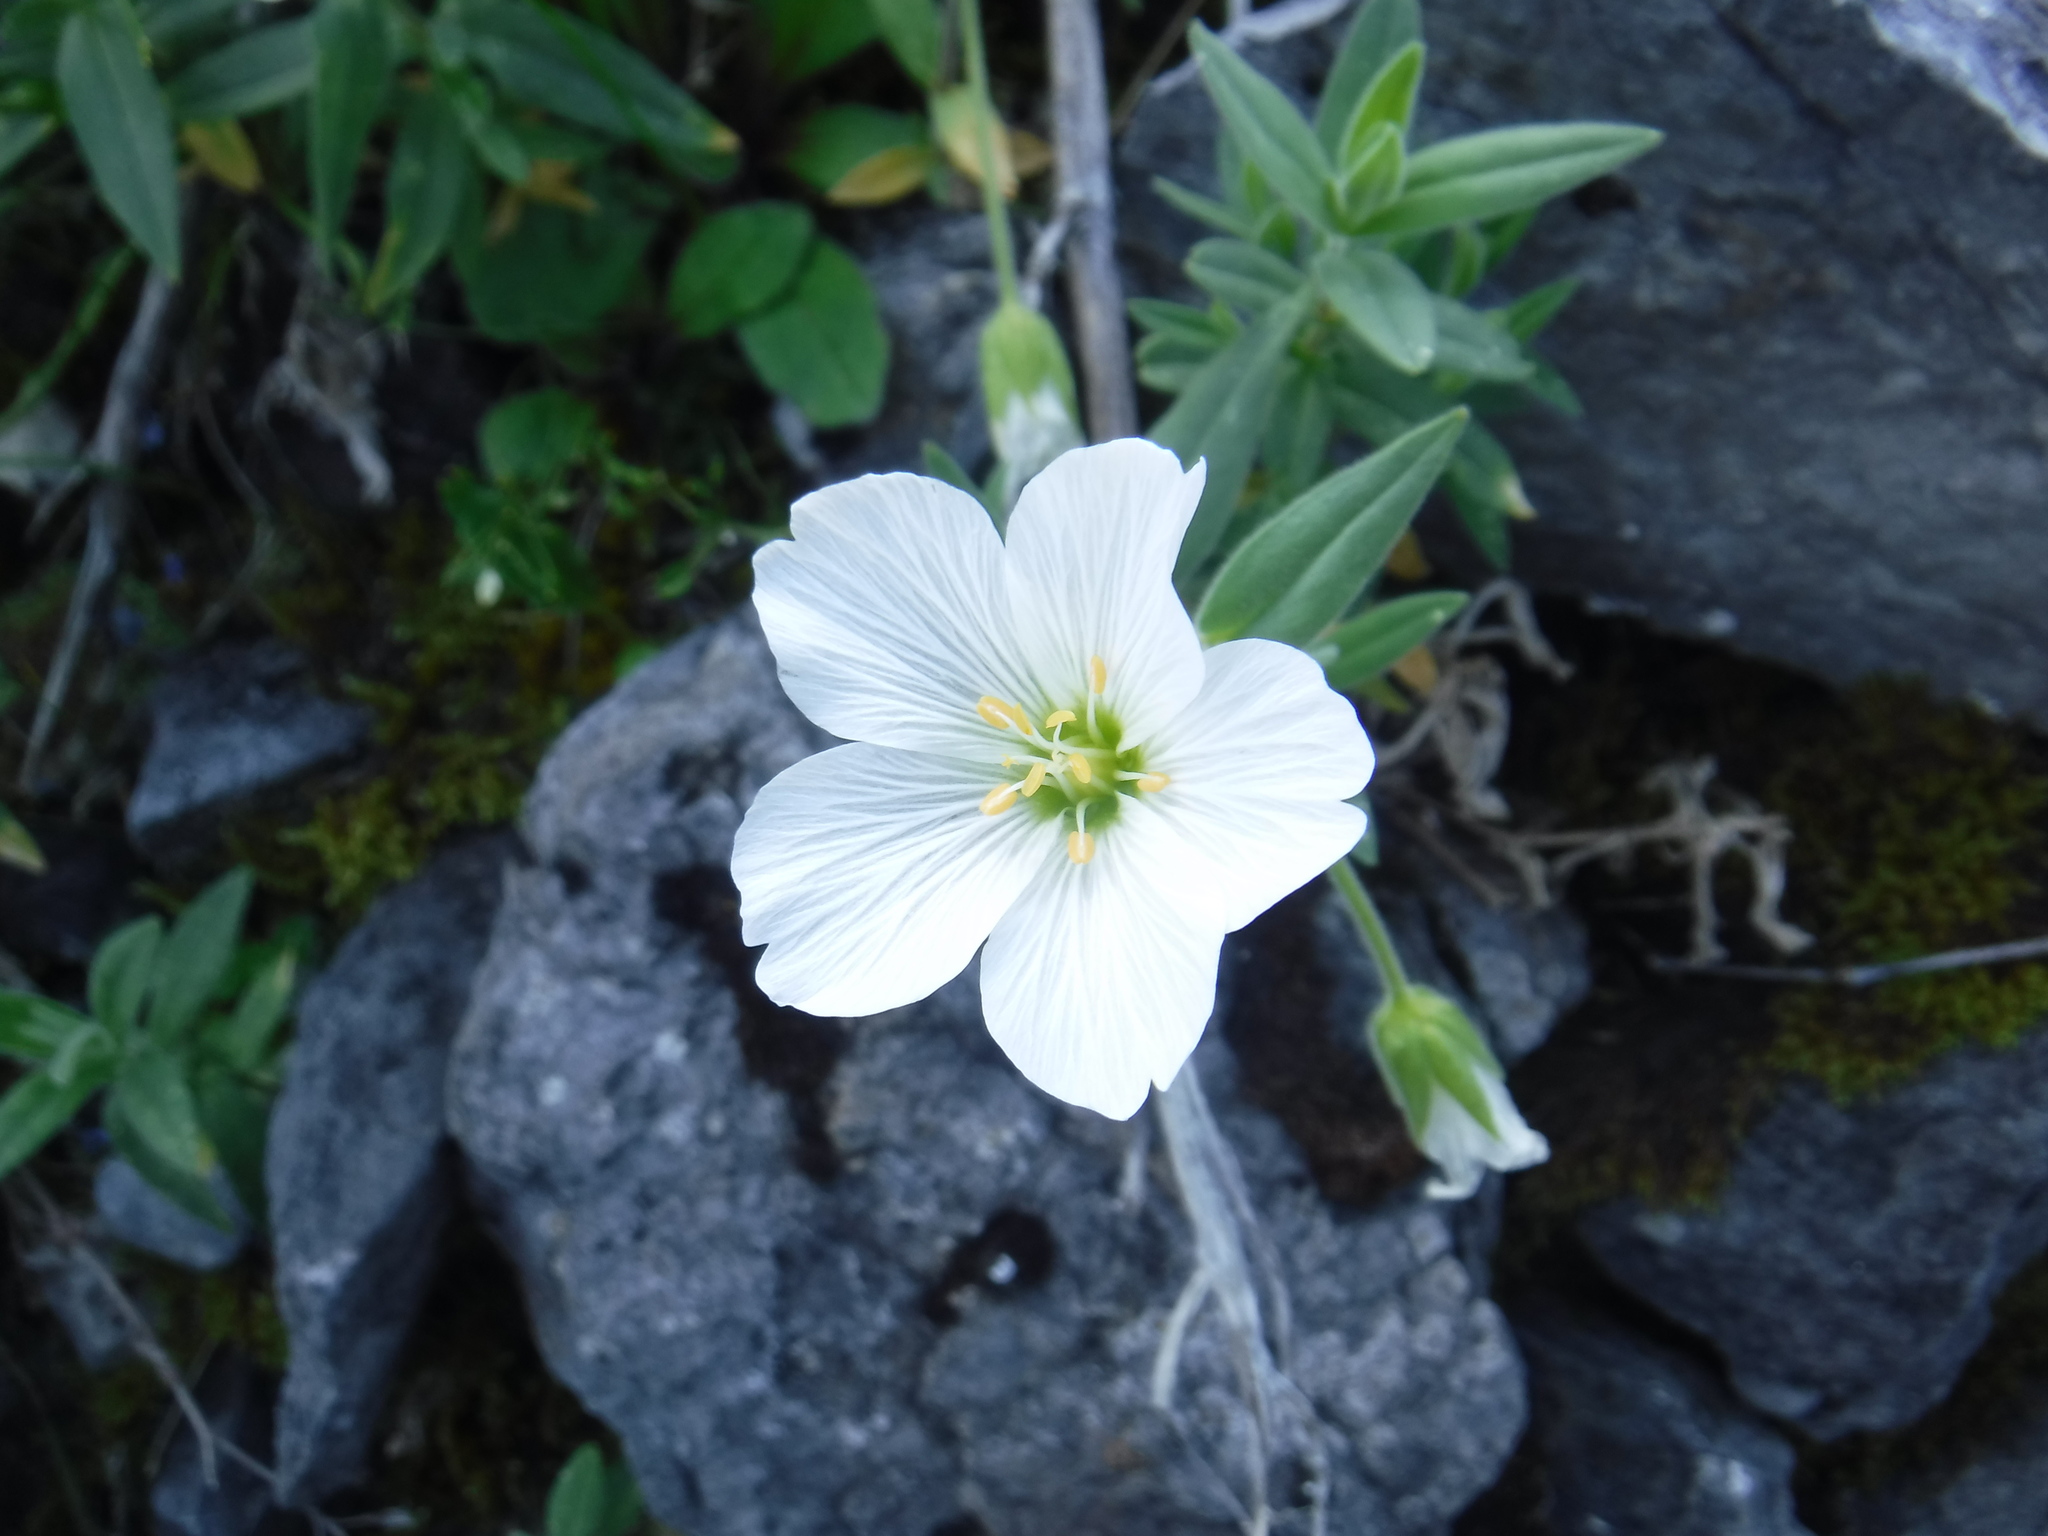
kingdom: Plantae
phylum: Tracheophyta
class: Magnoliopsida
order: Caryophyllales
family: Caryophyllaceae
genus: Cerastium
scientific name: Cerastium lithospermifolium
